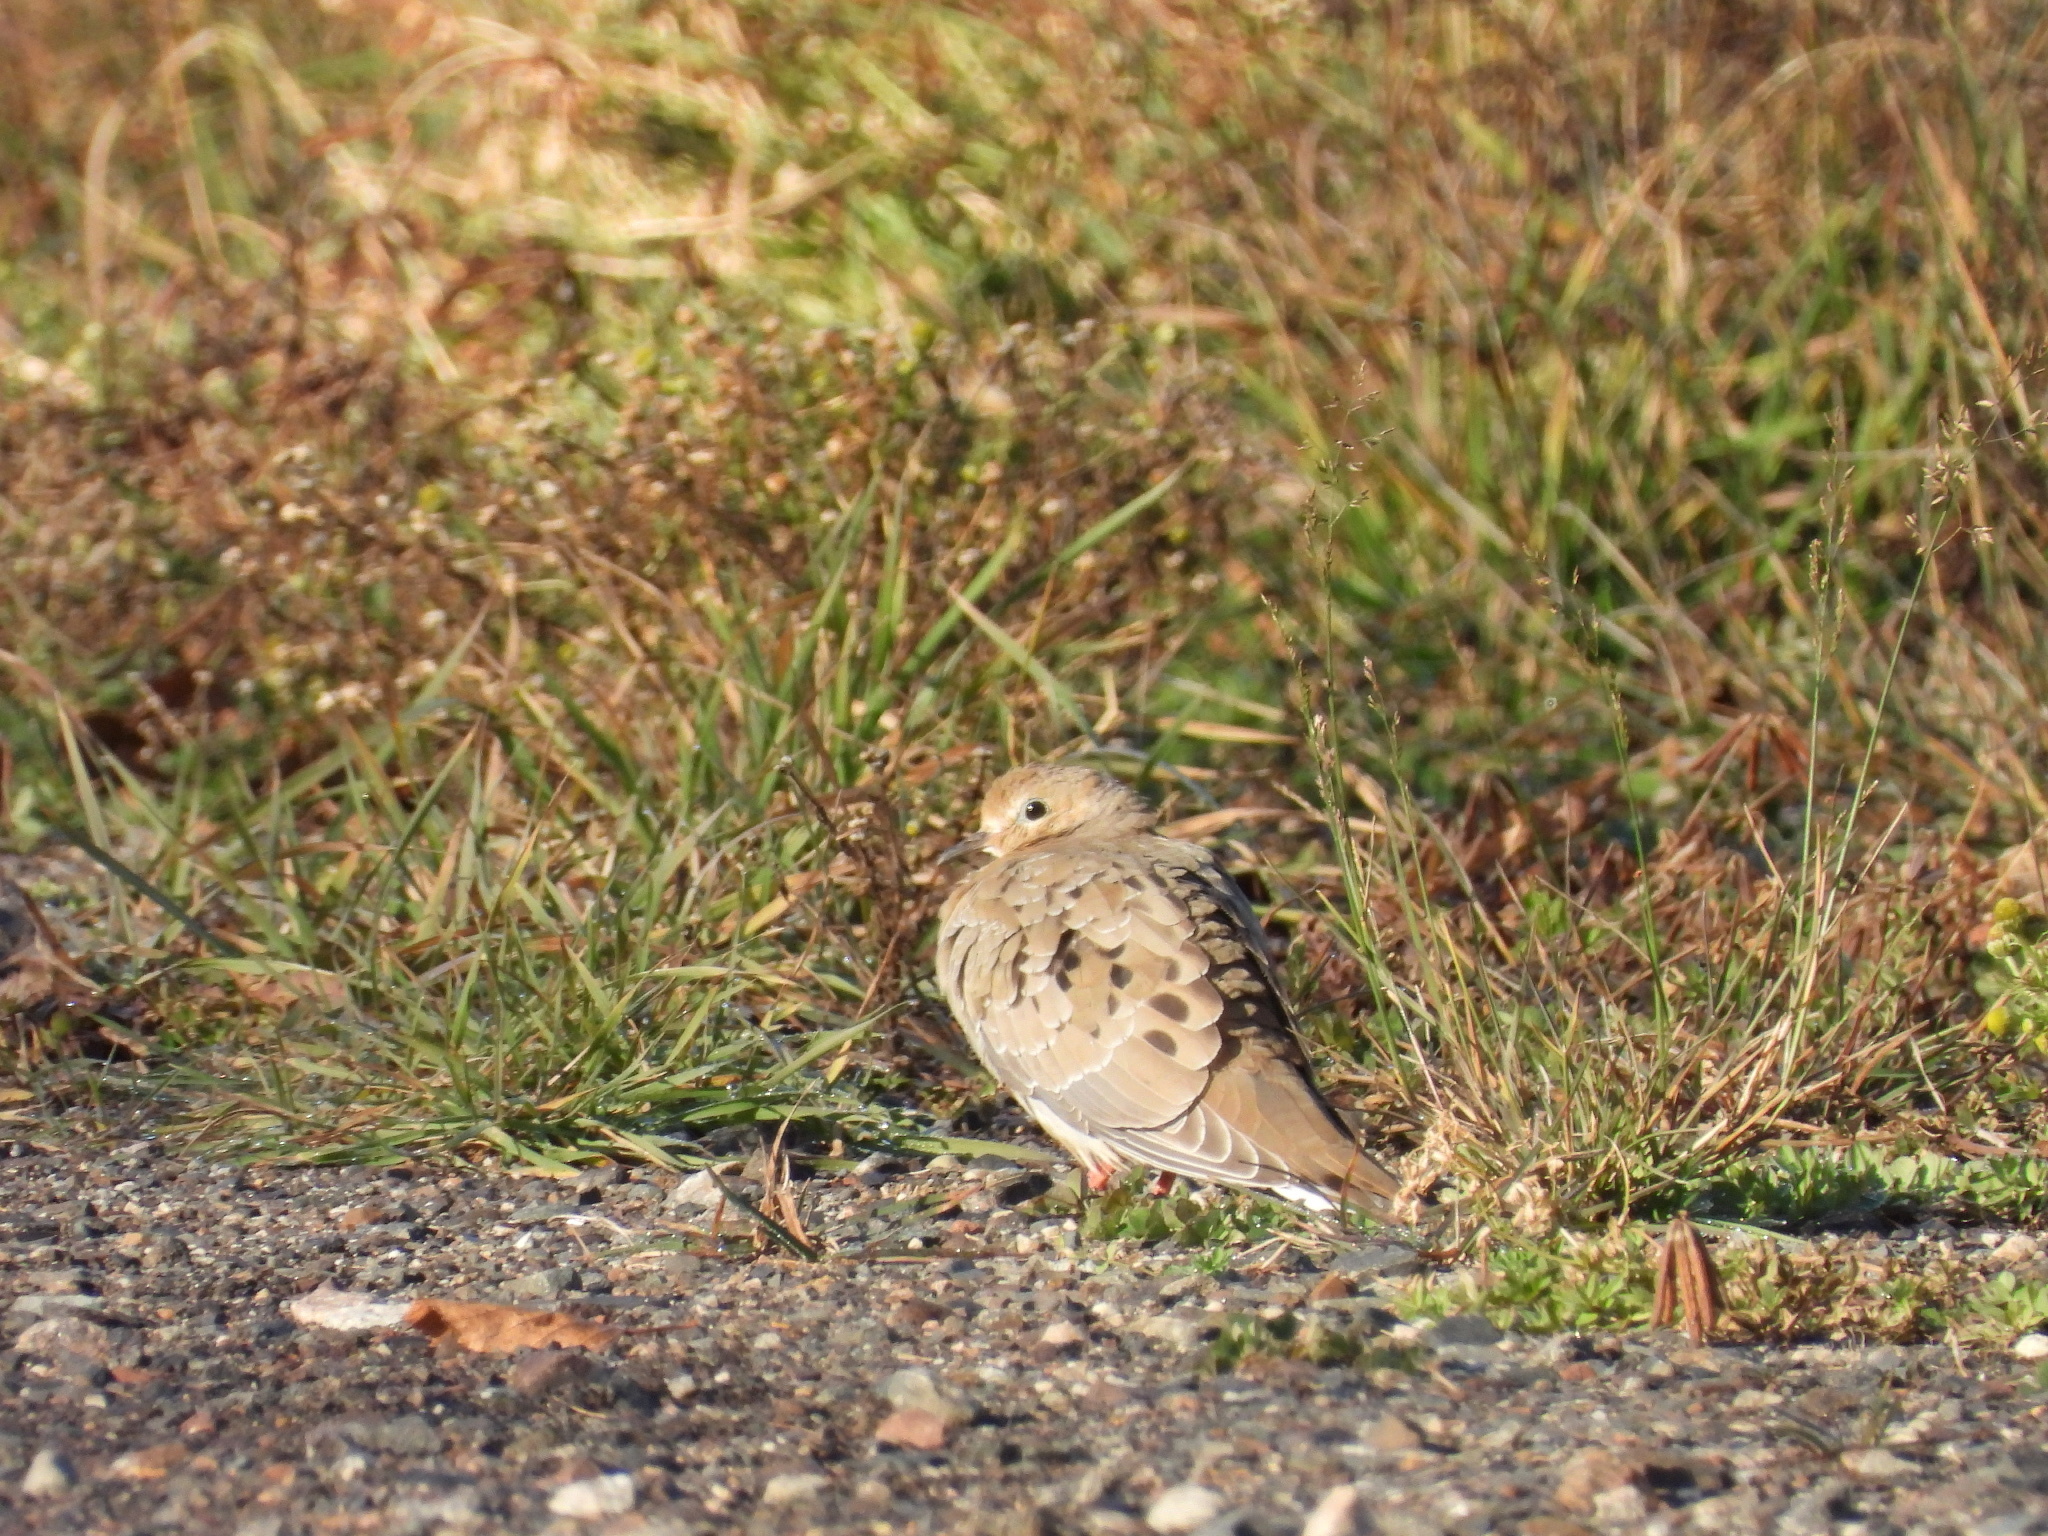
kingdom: Animalia
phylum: Chordata
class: Aves
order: Columbiformes
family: Columbidae
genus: Zenaida
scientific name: Zenaida macroura
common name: Mourning dove
